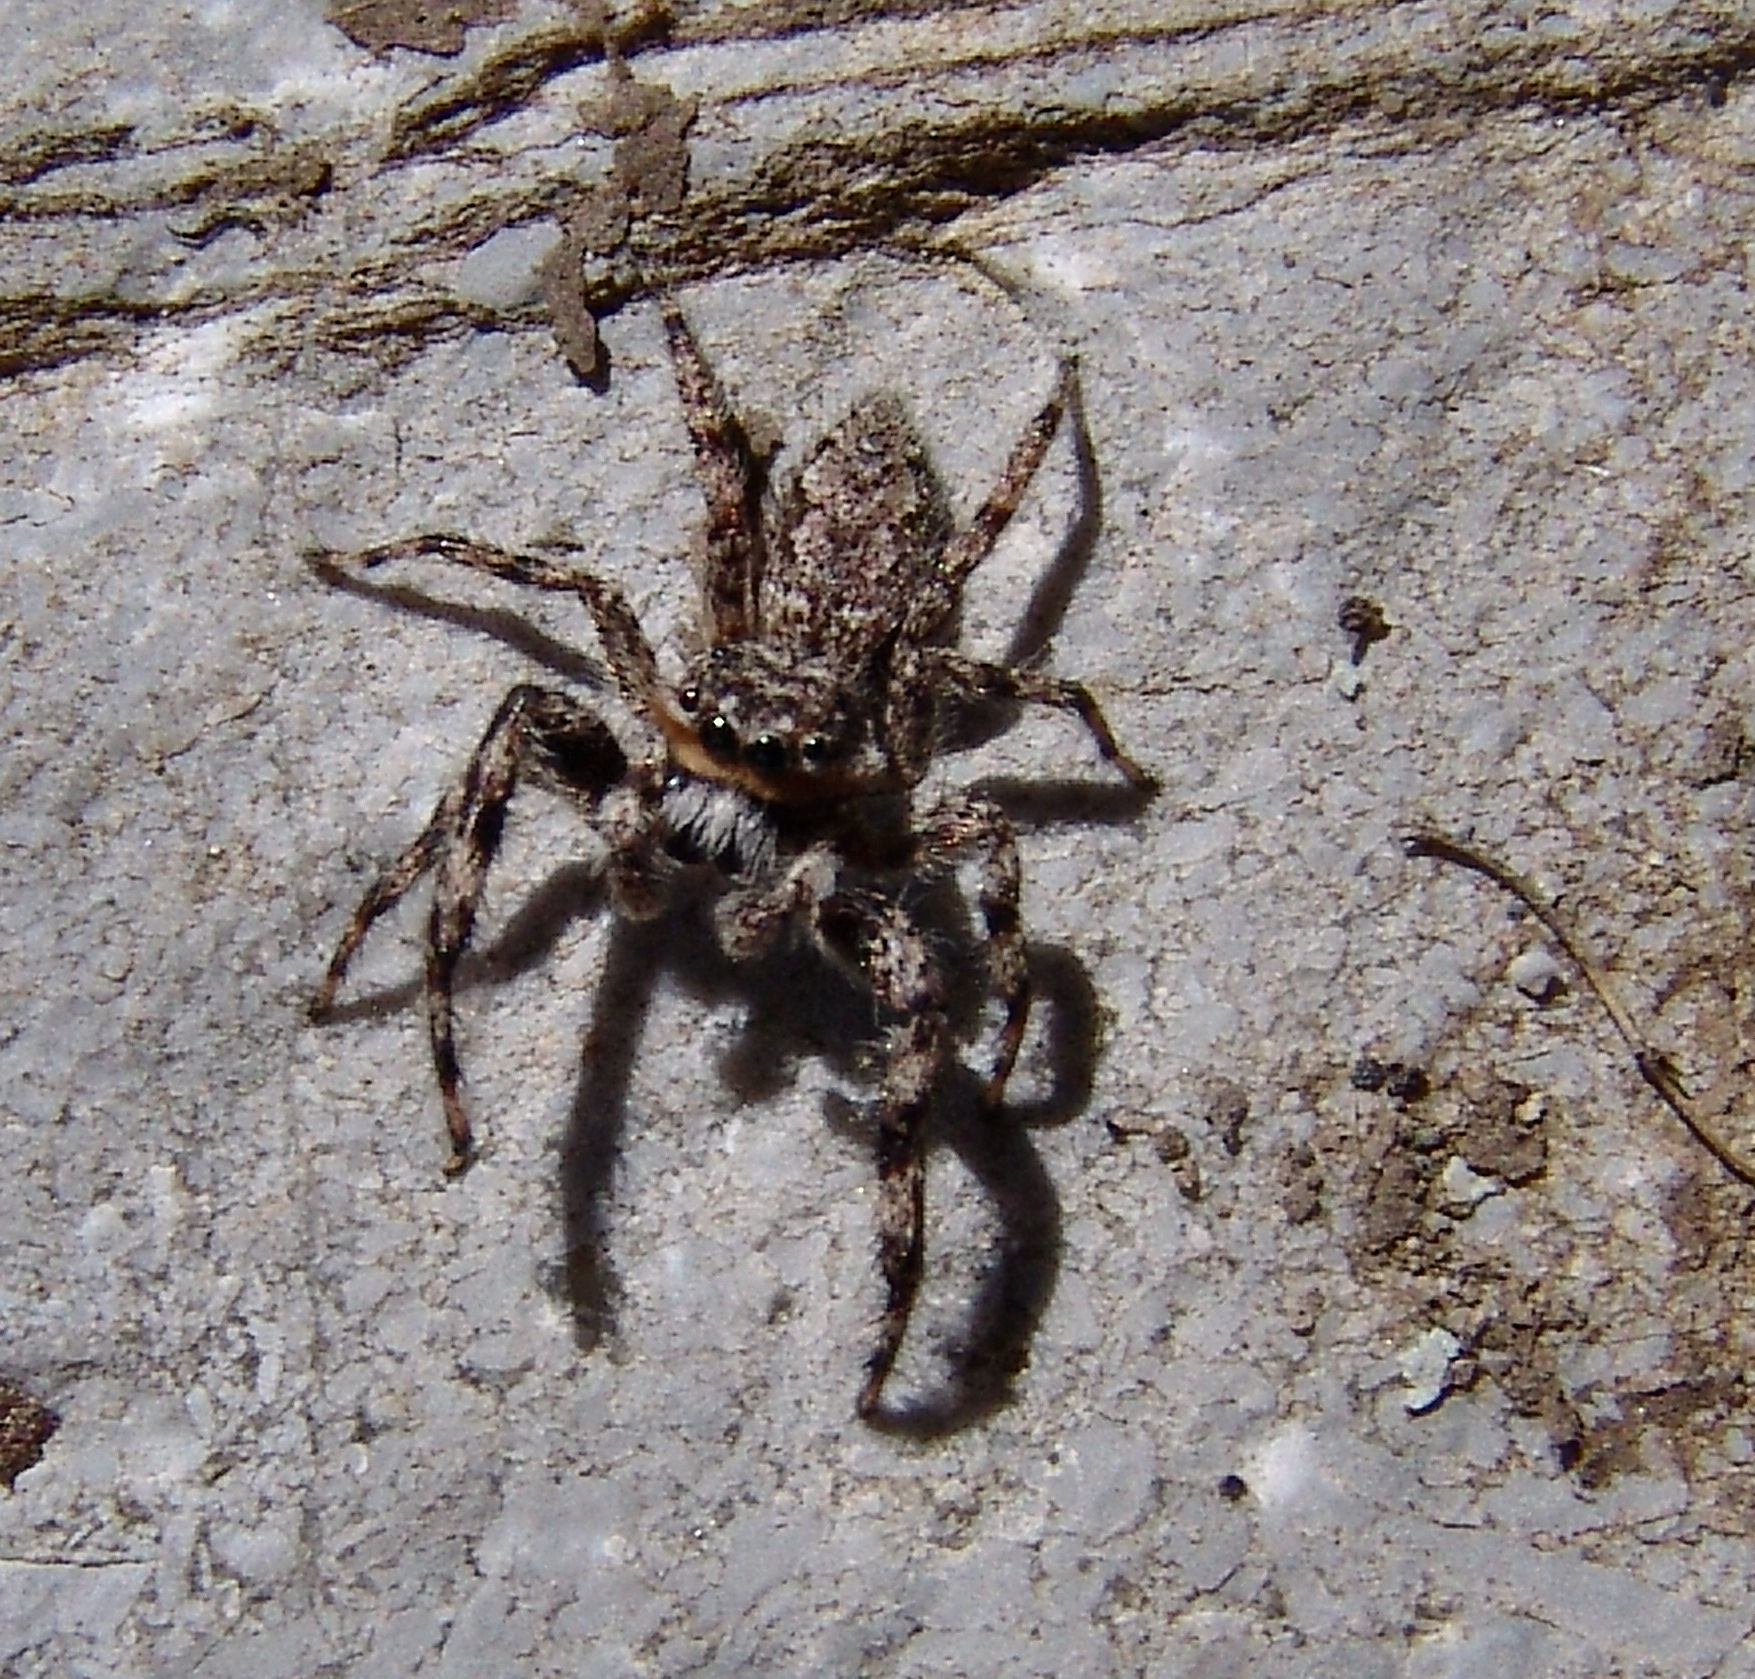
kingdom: Animalia
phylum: Arthropoda
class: Arachnida
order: Araneae
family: Salticidae
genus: Platycryptus
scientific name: Platycryptus undatus
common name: Tan jumping spider
